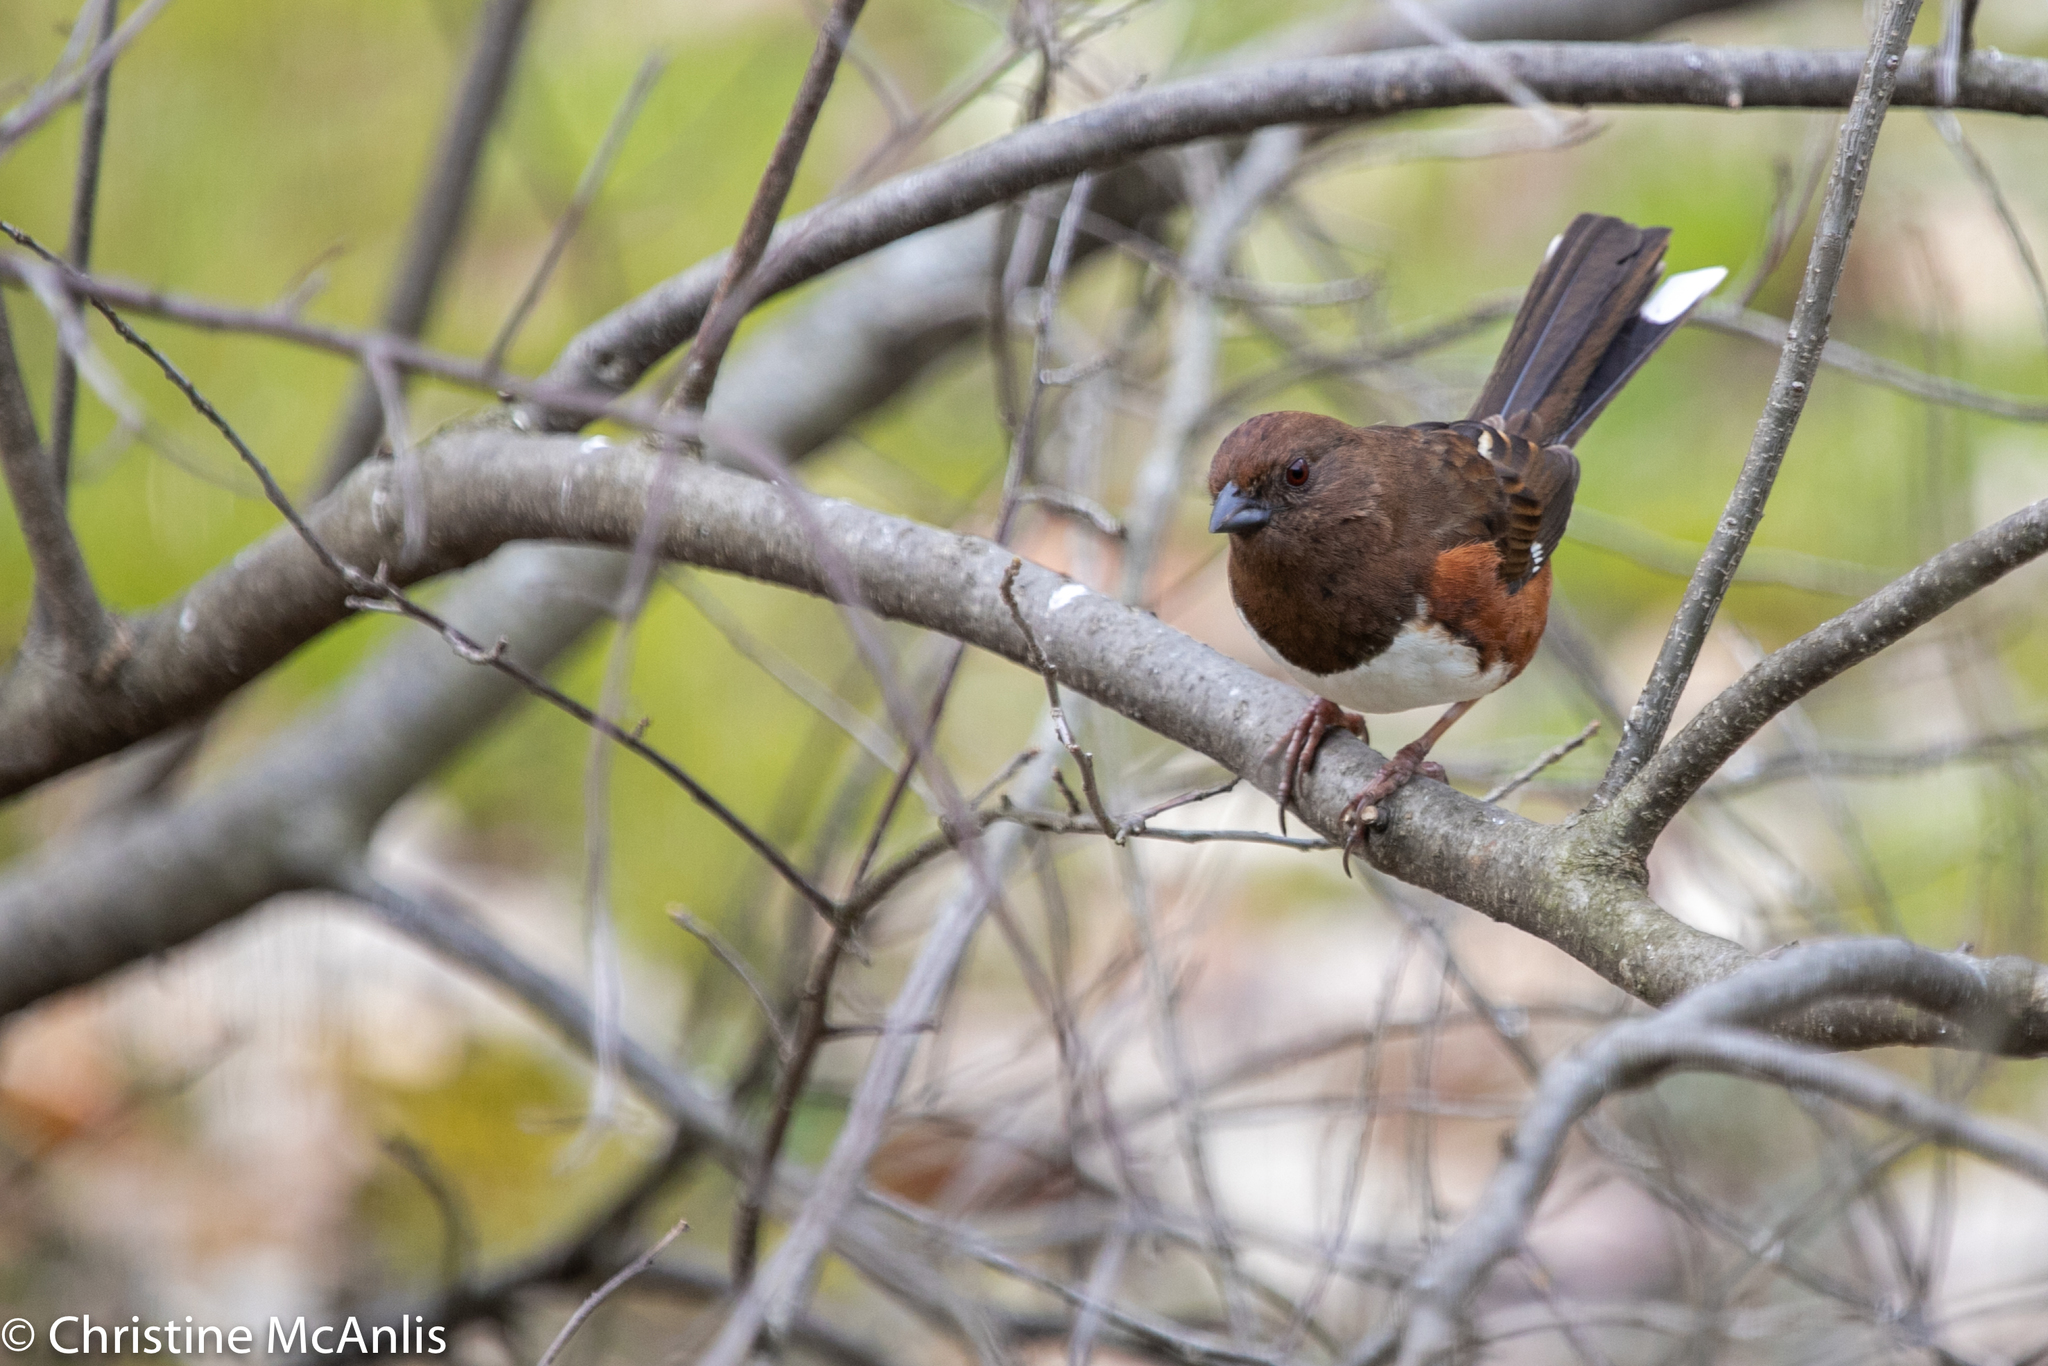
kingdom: Animalia
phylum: Chordata
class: Aves
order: Passeriformes
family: Passerellidae
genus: Pipilo
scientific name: Pipilo erythrophthalmus
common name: Eastern towhee
